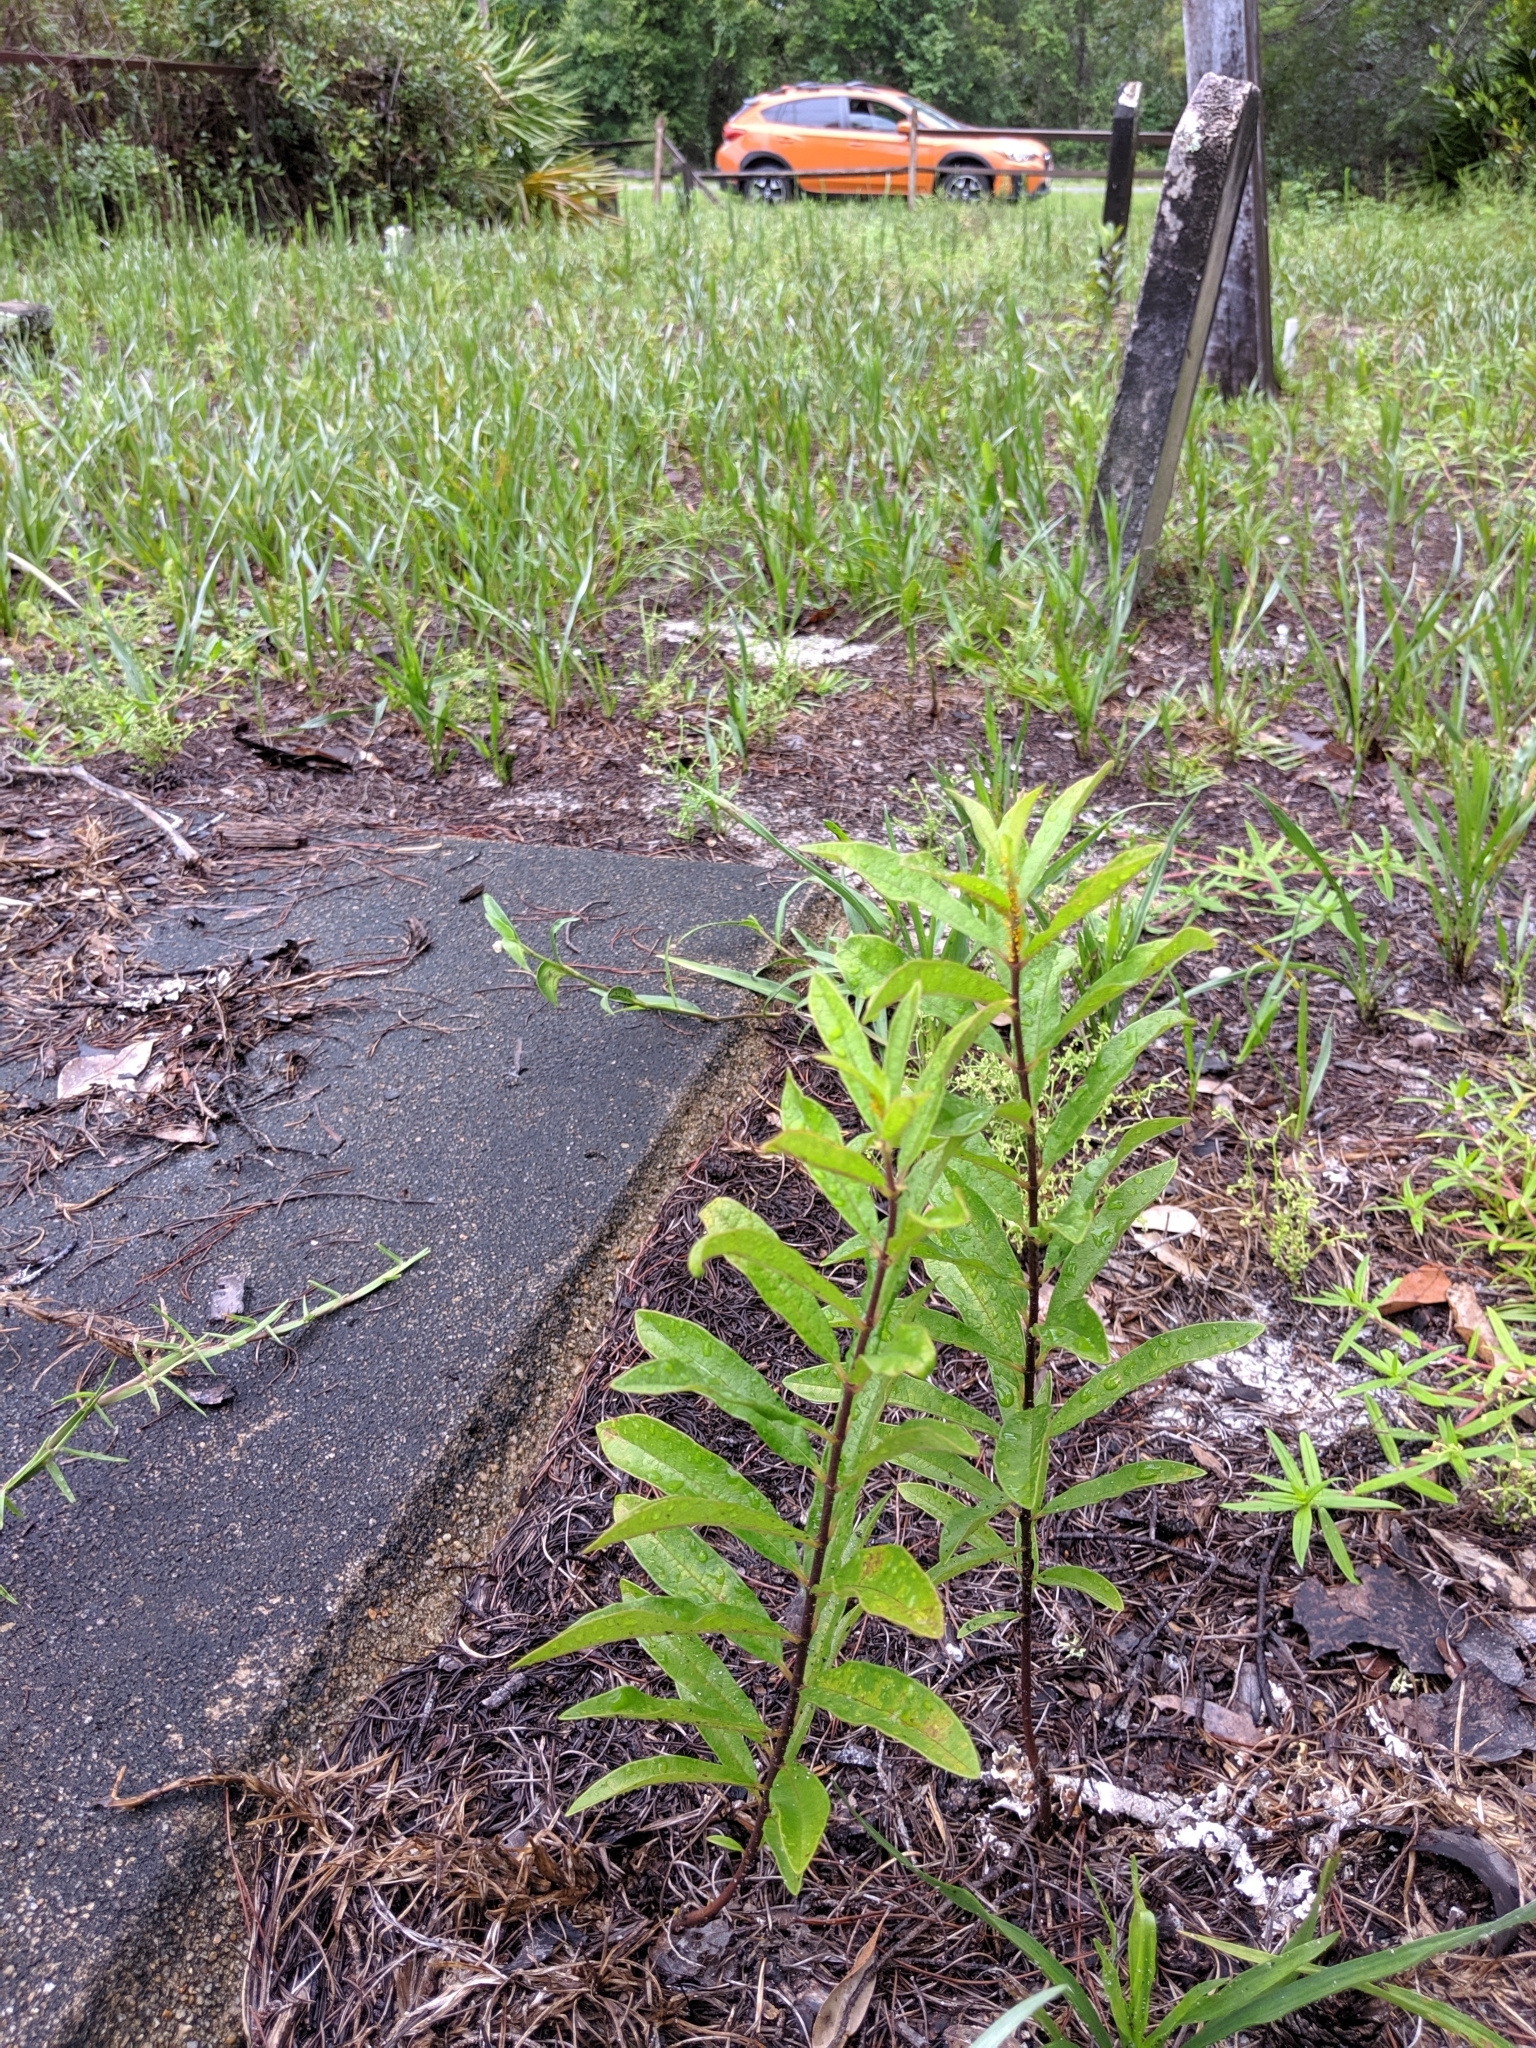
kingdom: Plantae
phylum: Tracheophyta
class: Magnoliopsida
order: Gentianales
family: Apocynaceae
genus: Asclepias
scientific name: Asclepias tomentosa
